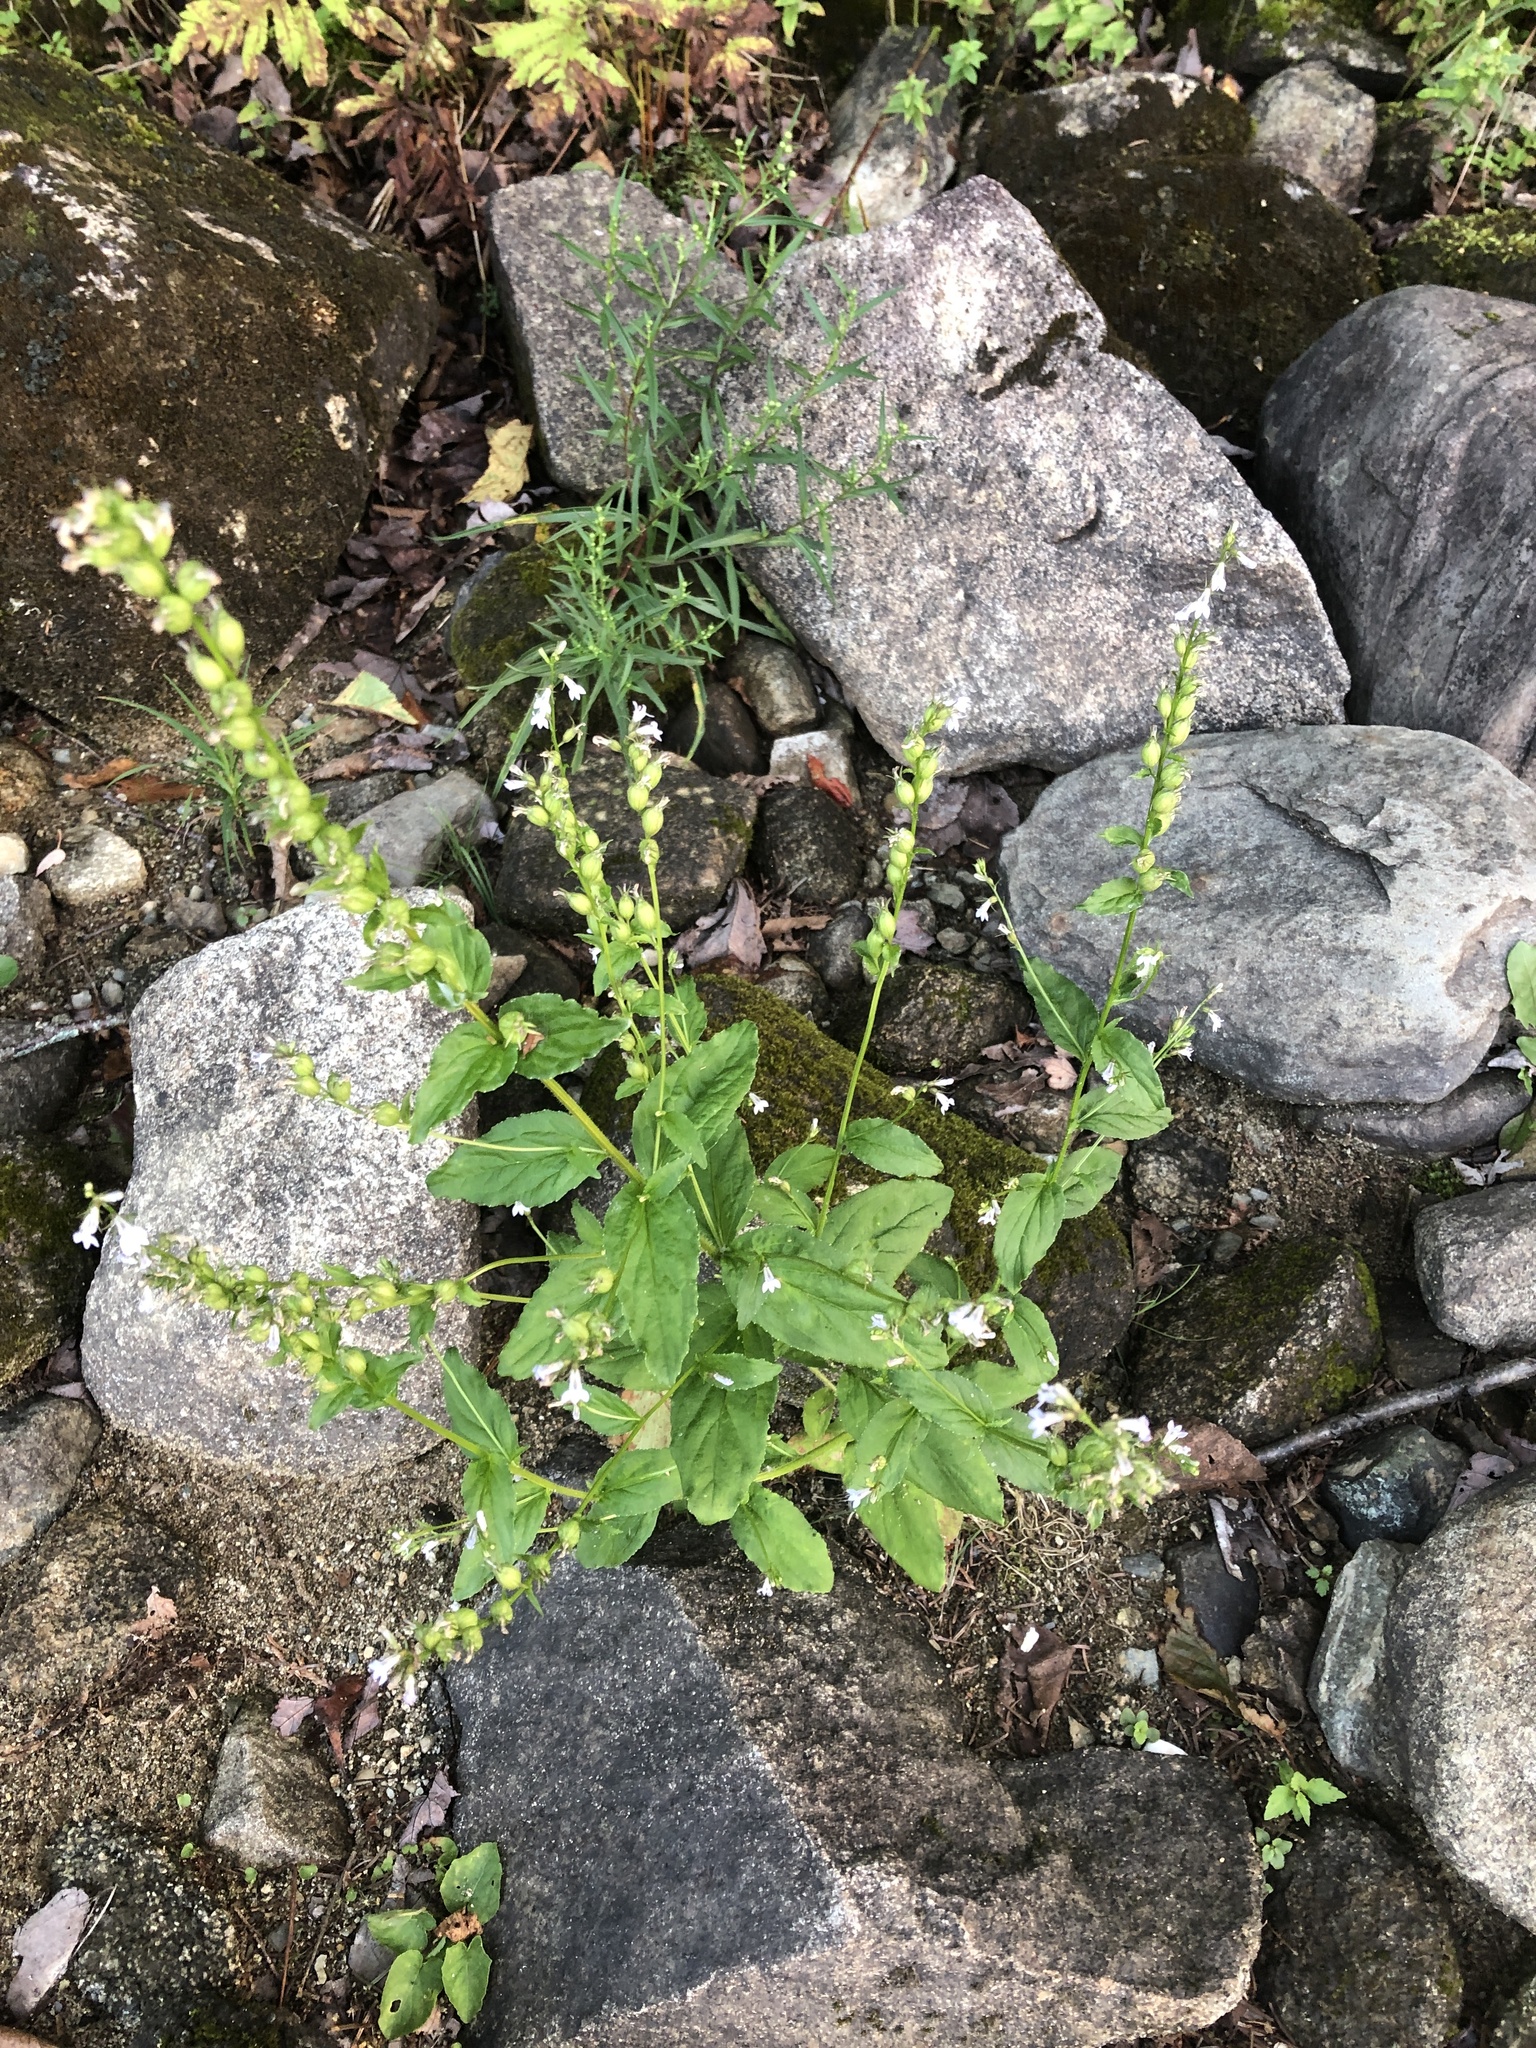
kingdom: Plantae
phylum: Tracheophyta
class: Magnoliopsida
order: Asterales
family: Campanulaceae
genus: Lobelia
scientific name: Lobelia inflata
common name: Indian tobacco
